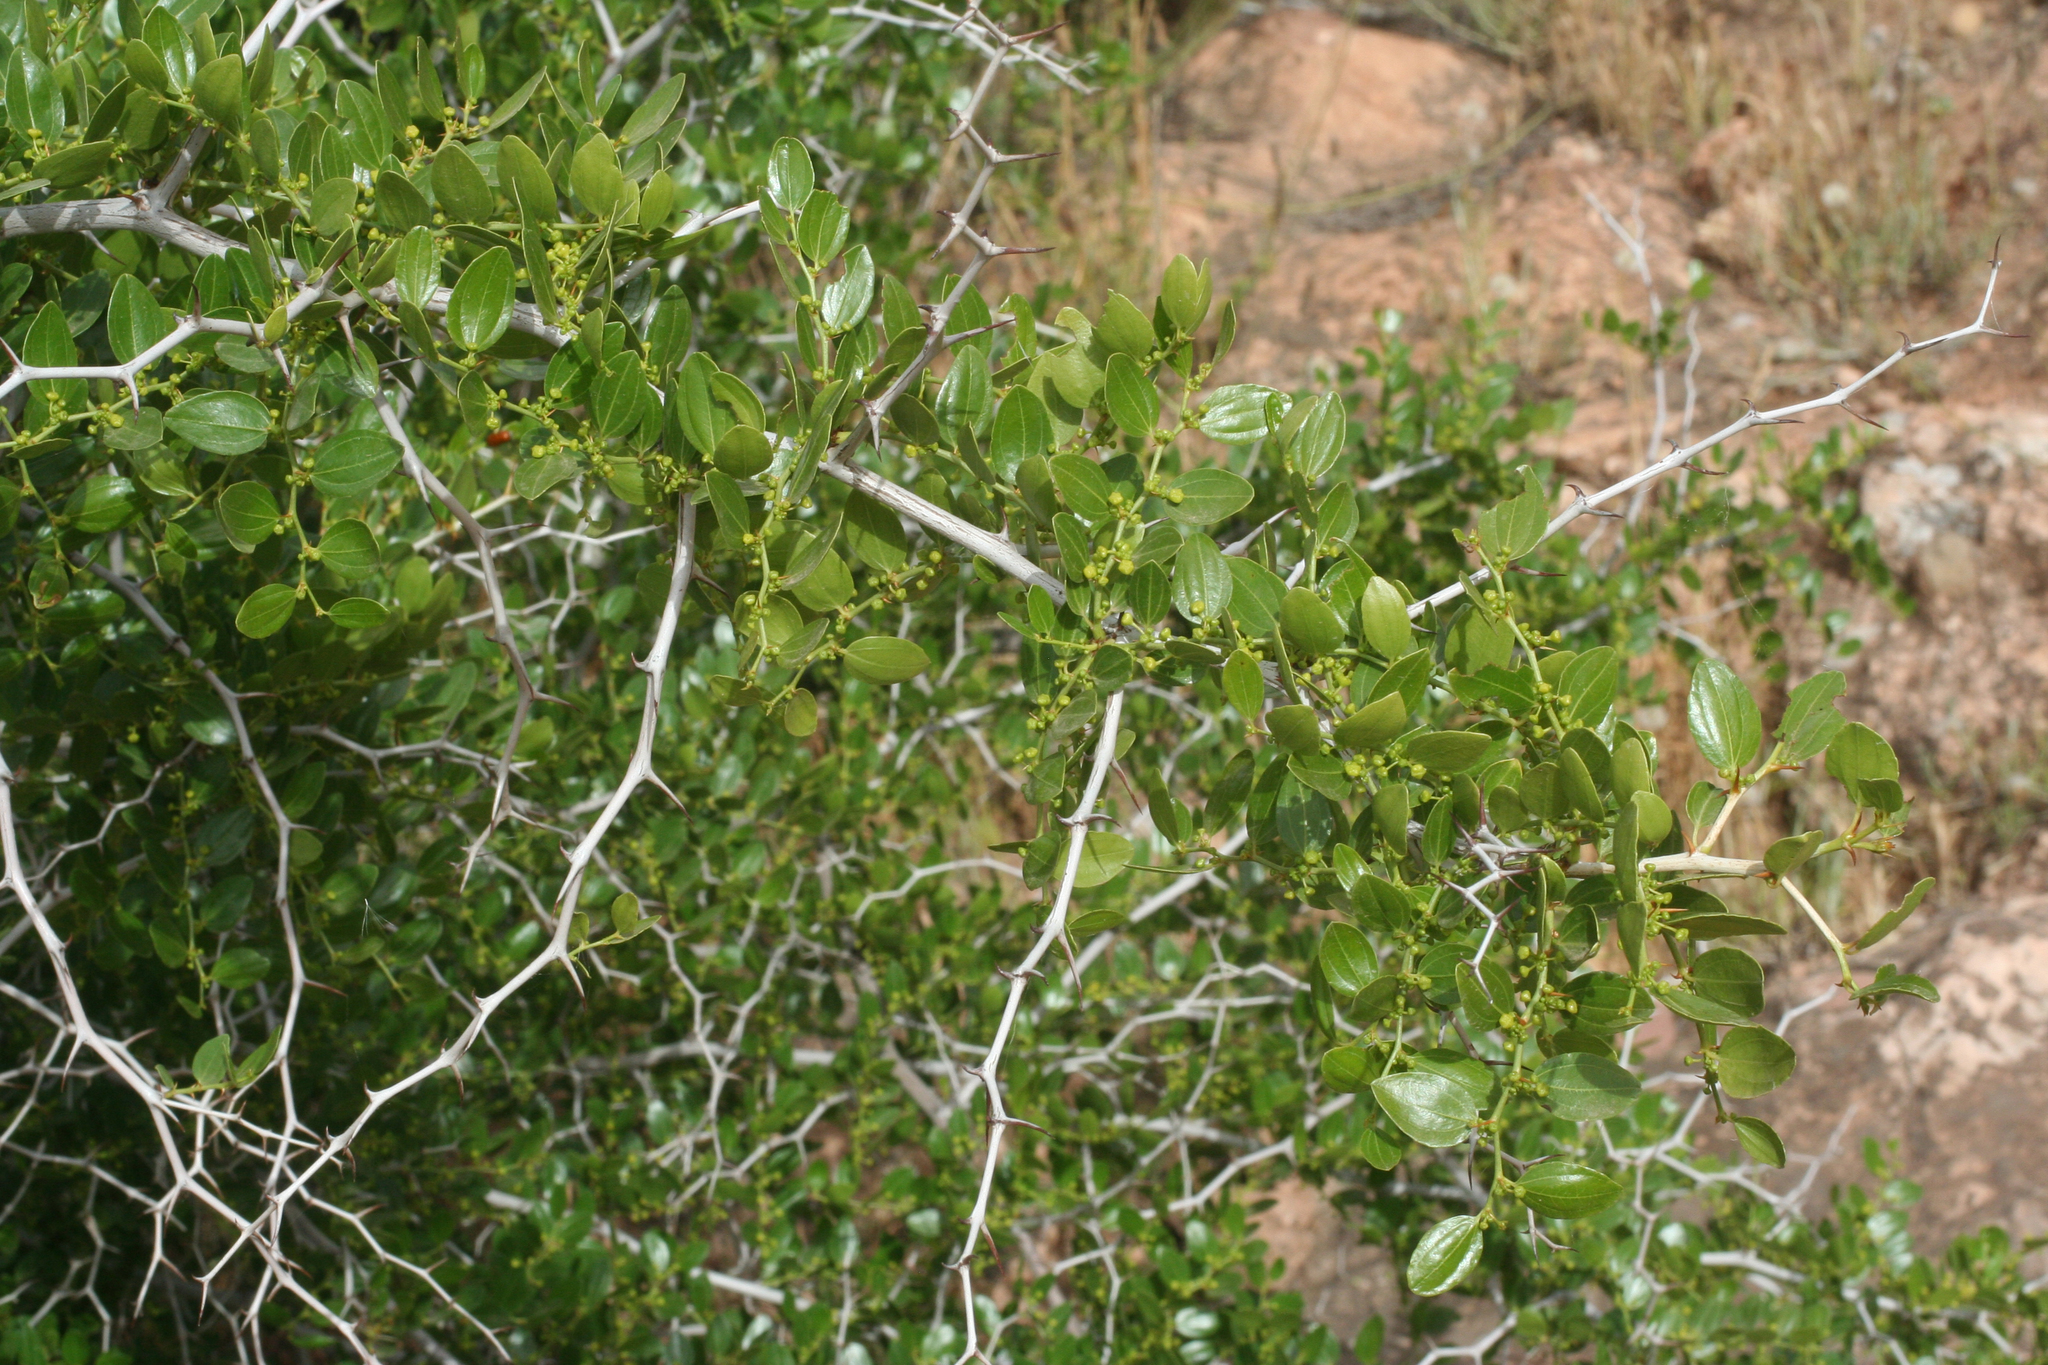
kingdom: Plantae
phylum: Tracheophyta
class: Magnoliopsida
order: Rosales
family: Rhamnaceae
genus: Ziziphus
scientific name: Ziziphus lotus
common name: Lotus
